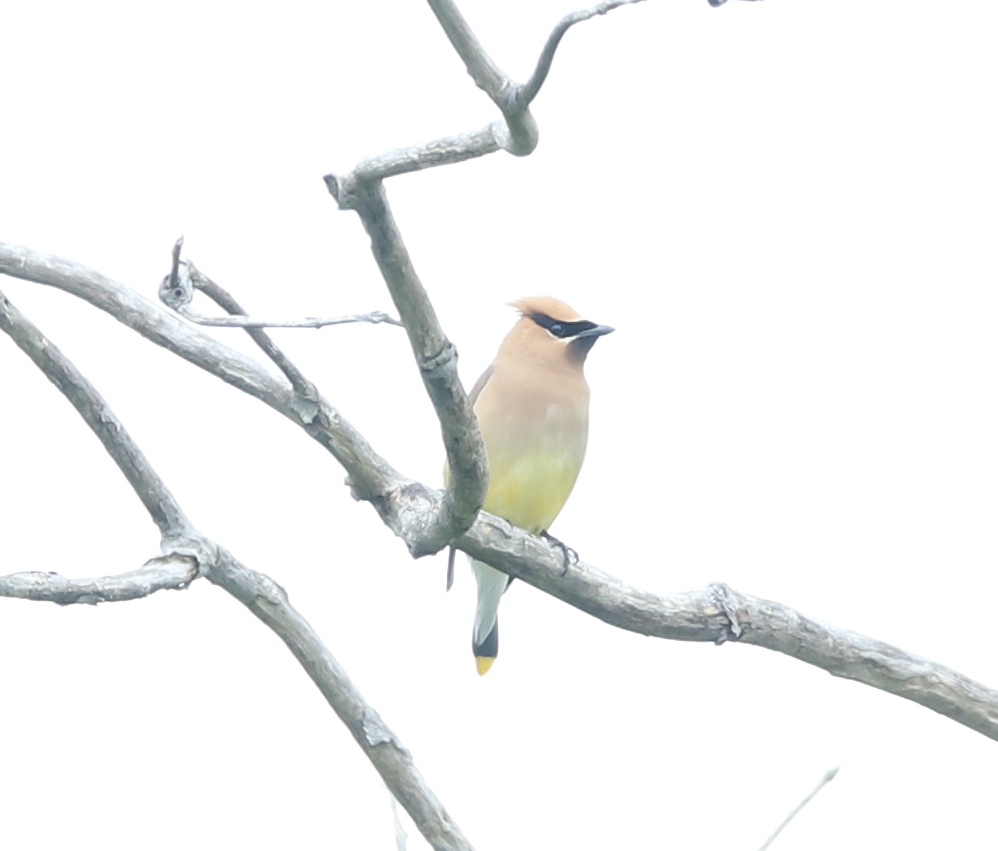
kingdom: Animalia
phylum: Chordata
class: Aves
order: Passeriformes
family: Bombycillidae
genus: Bombycilla
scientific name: Bombycilla cedrorum
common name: Cedar waxwing
